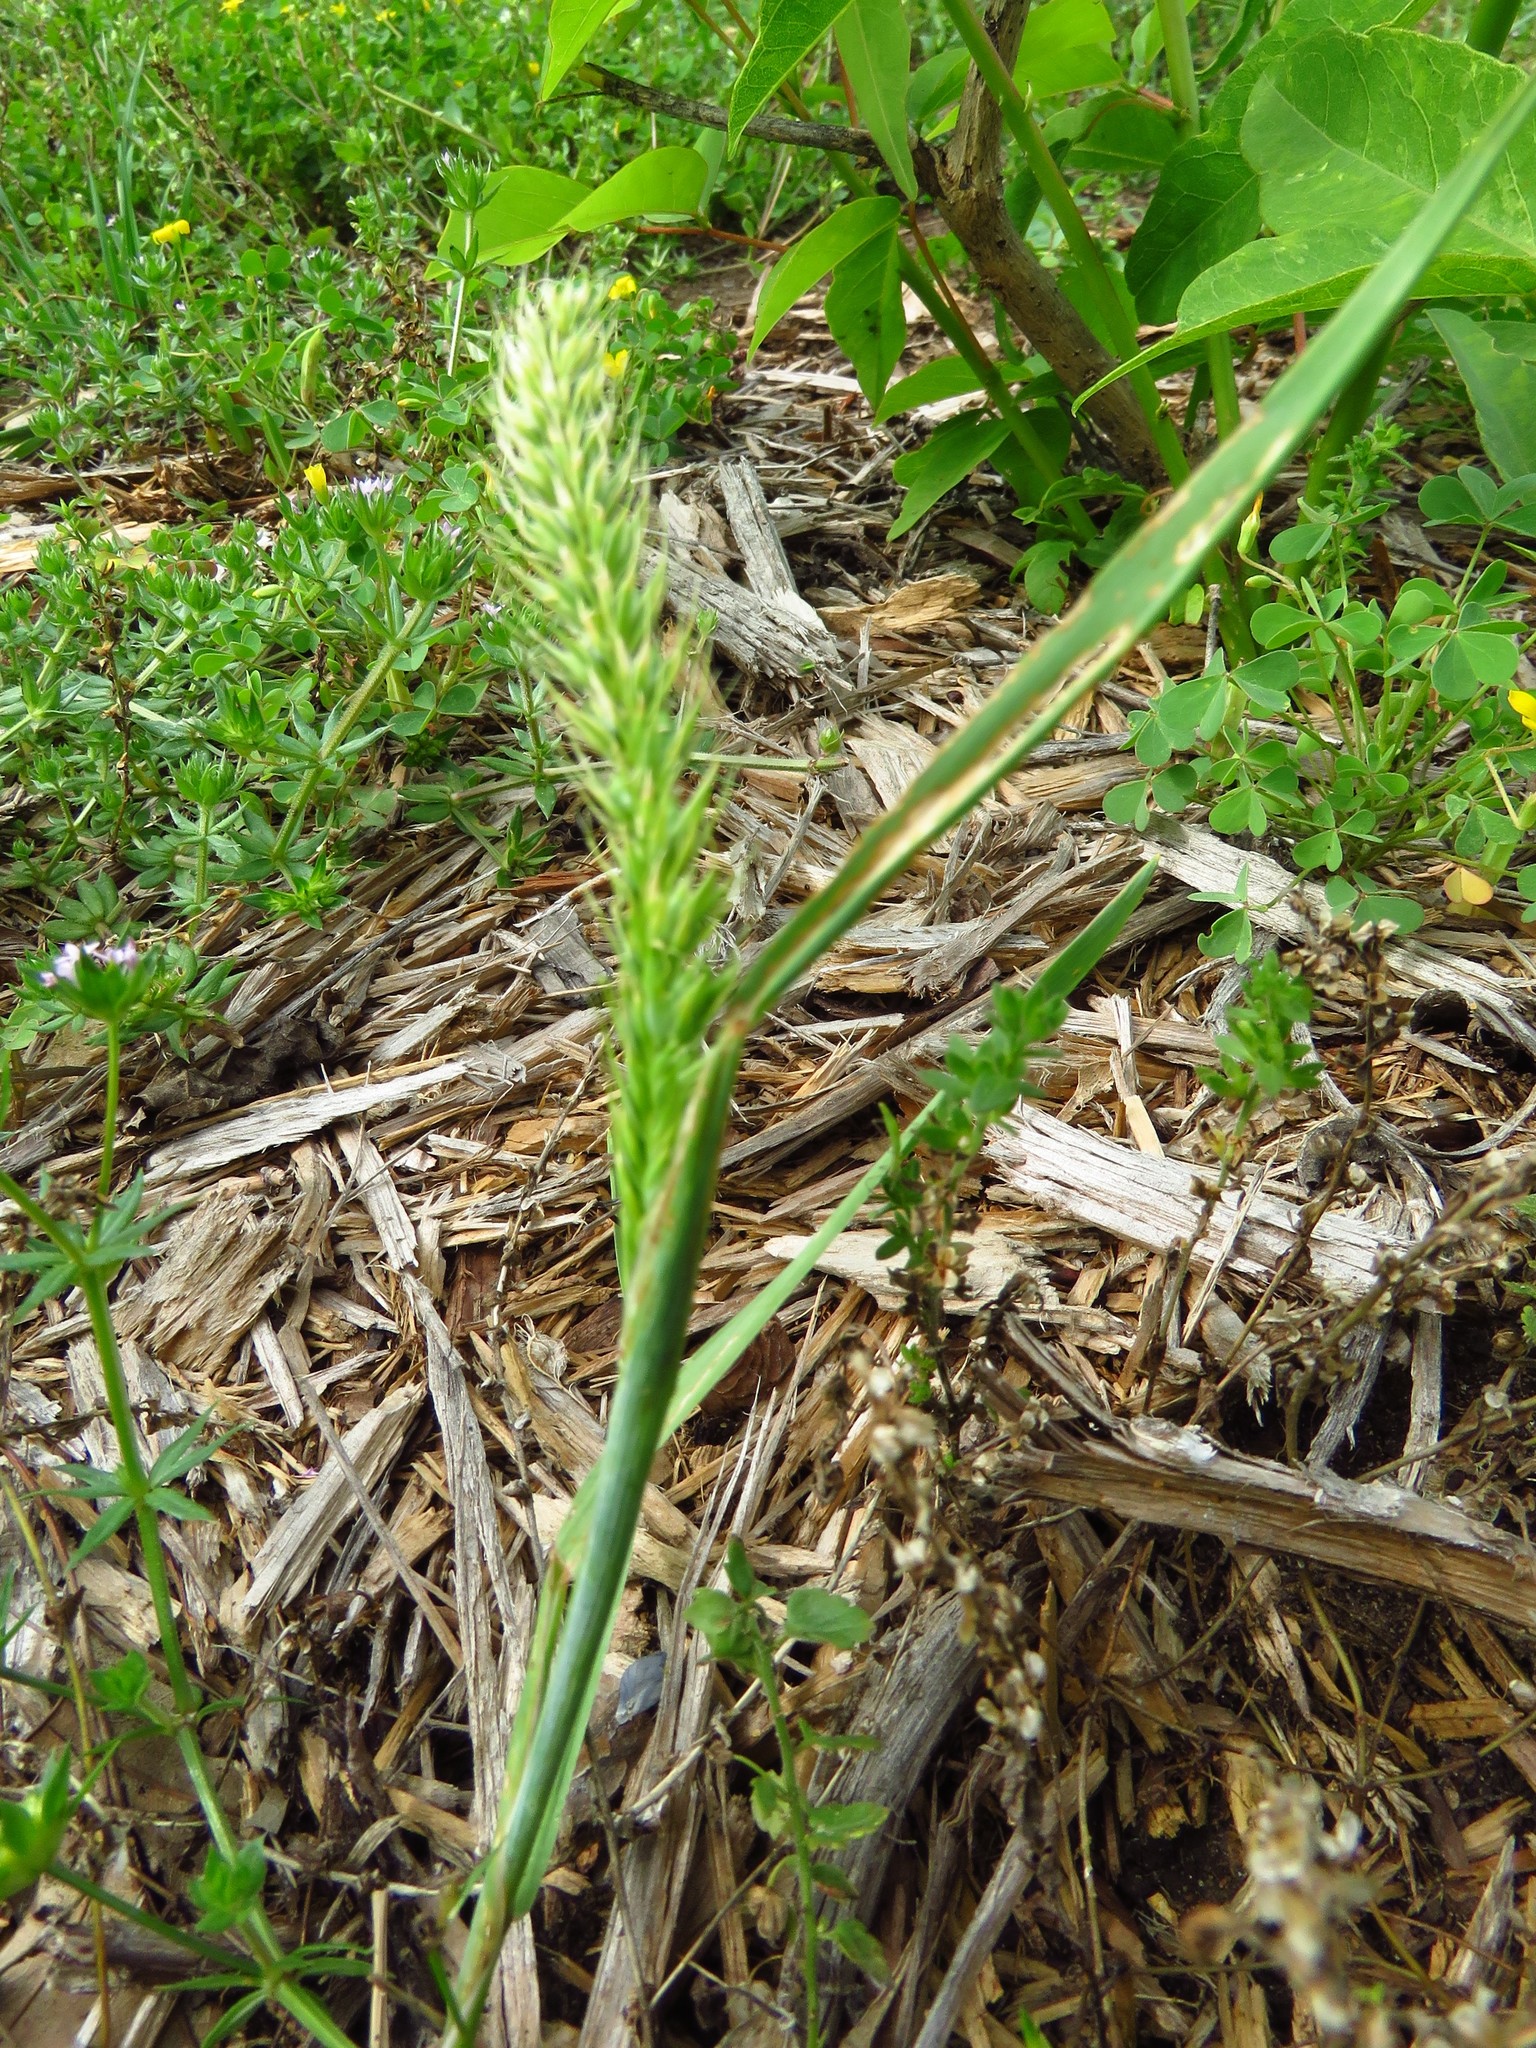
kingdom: Plantae
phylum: Tracheophyta
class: Liliopsida
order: Poales
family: Poaceae
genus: Hordeum
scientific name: Hordeum pusillum
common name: Little barley
